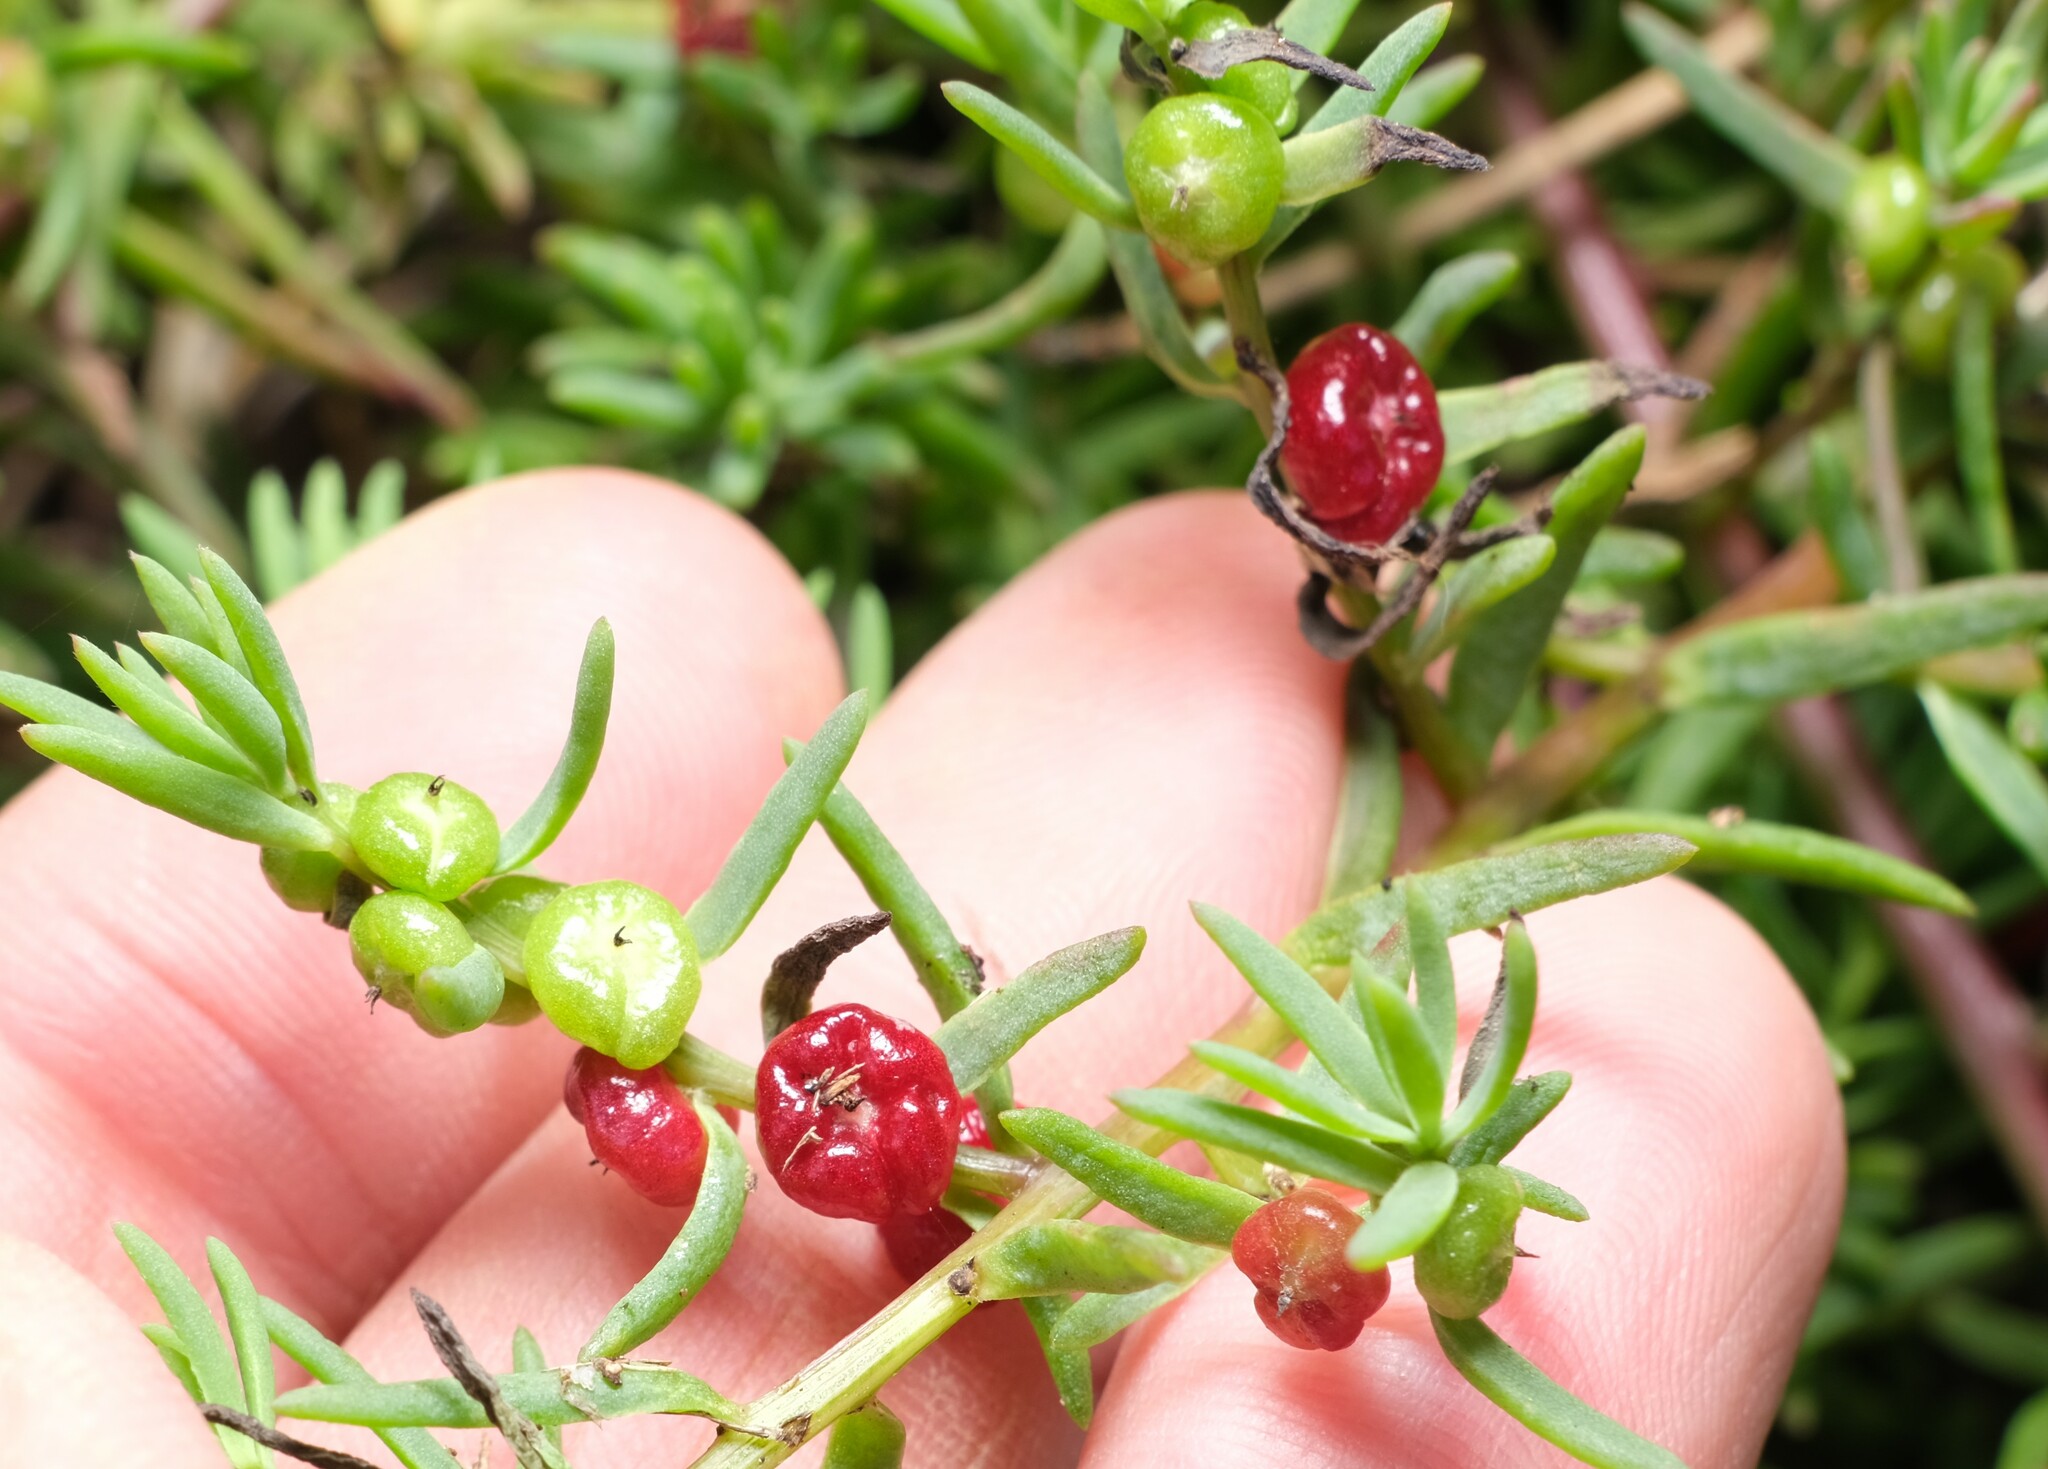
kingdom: Plantae
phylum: Tracheophyta
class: Magnoliopsida
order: Caryophyllales
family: Amaranthaceae
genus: Enchylaena
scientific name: Enchylaena tomentosa
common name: Ruby saltbush
